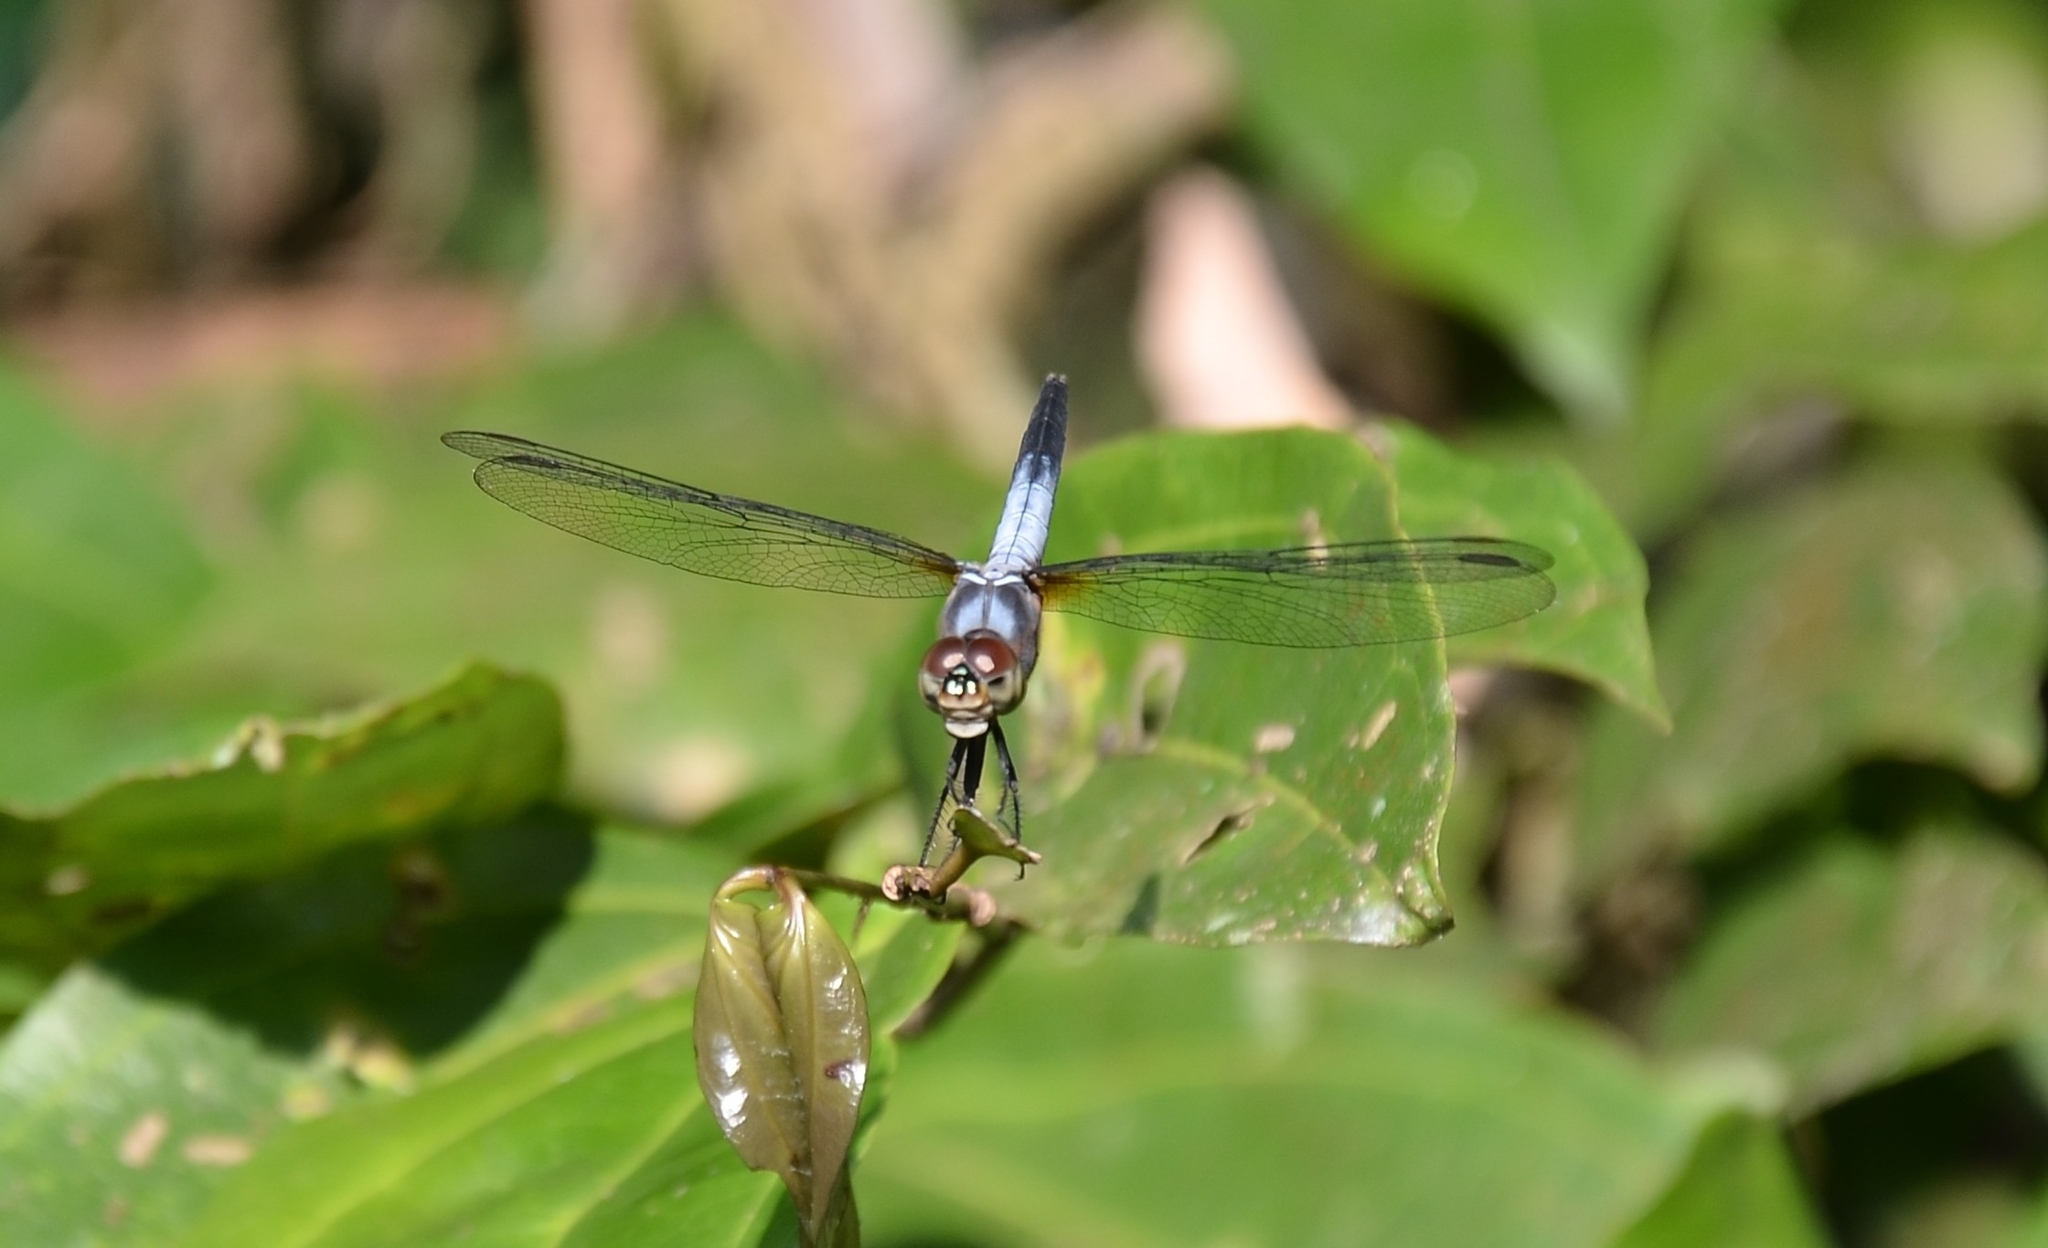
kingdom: Animalia
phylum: Arthropoda
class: Insecta
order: Odonata
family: Libellulidae
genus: Brachydiplax
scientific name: Brachydiplax chalybea
